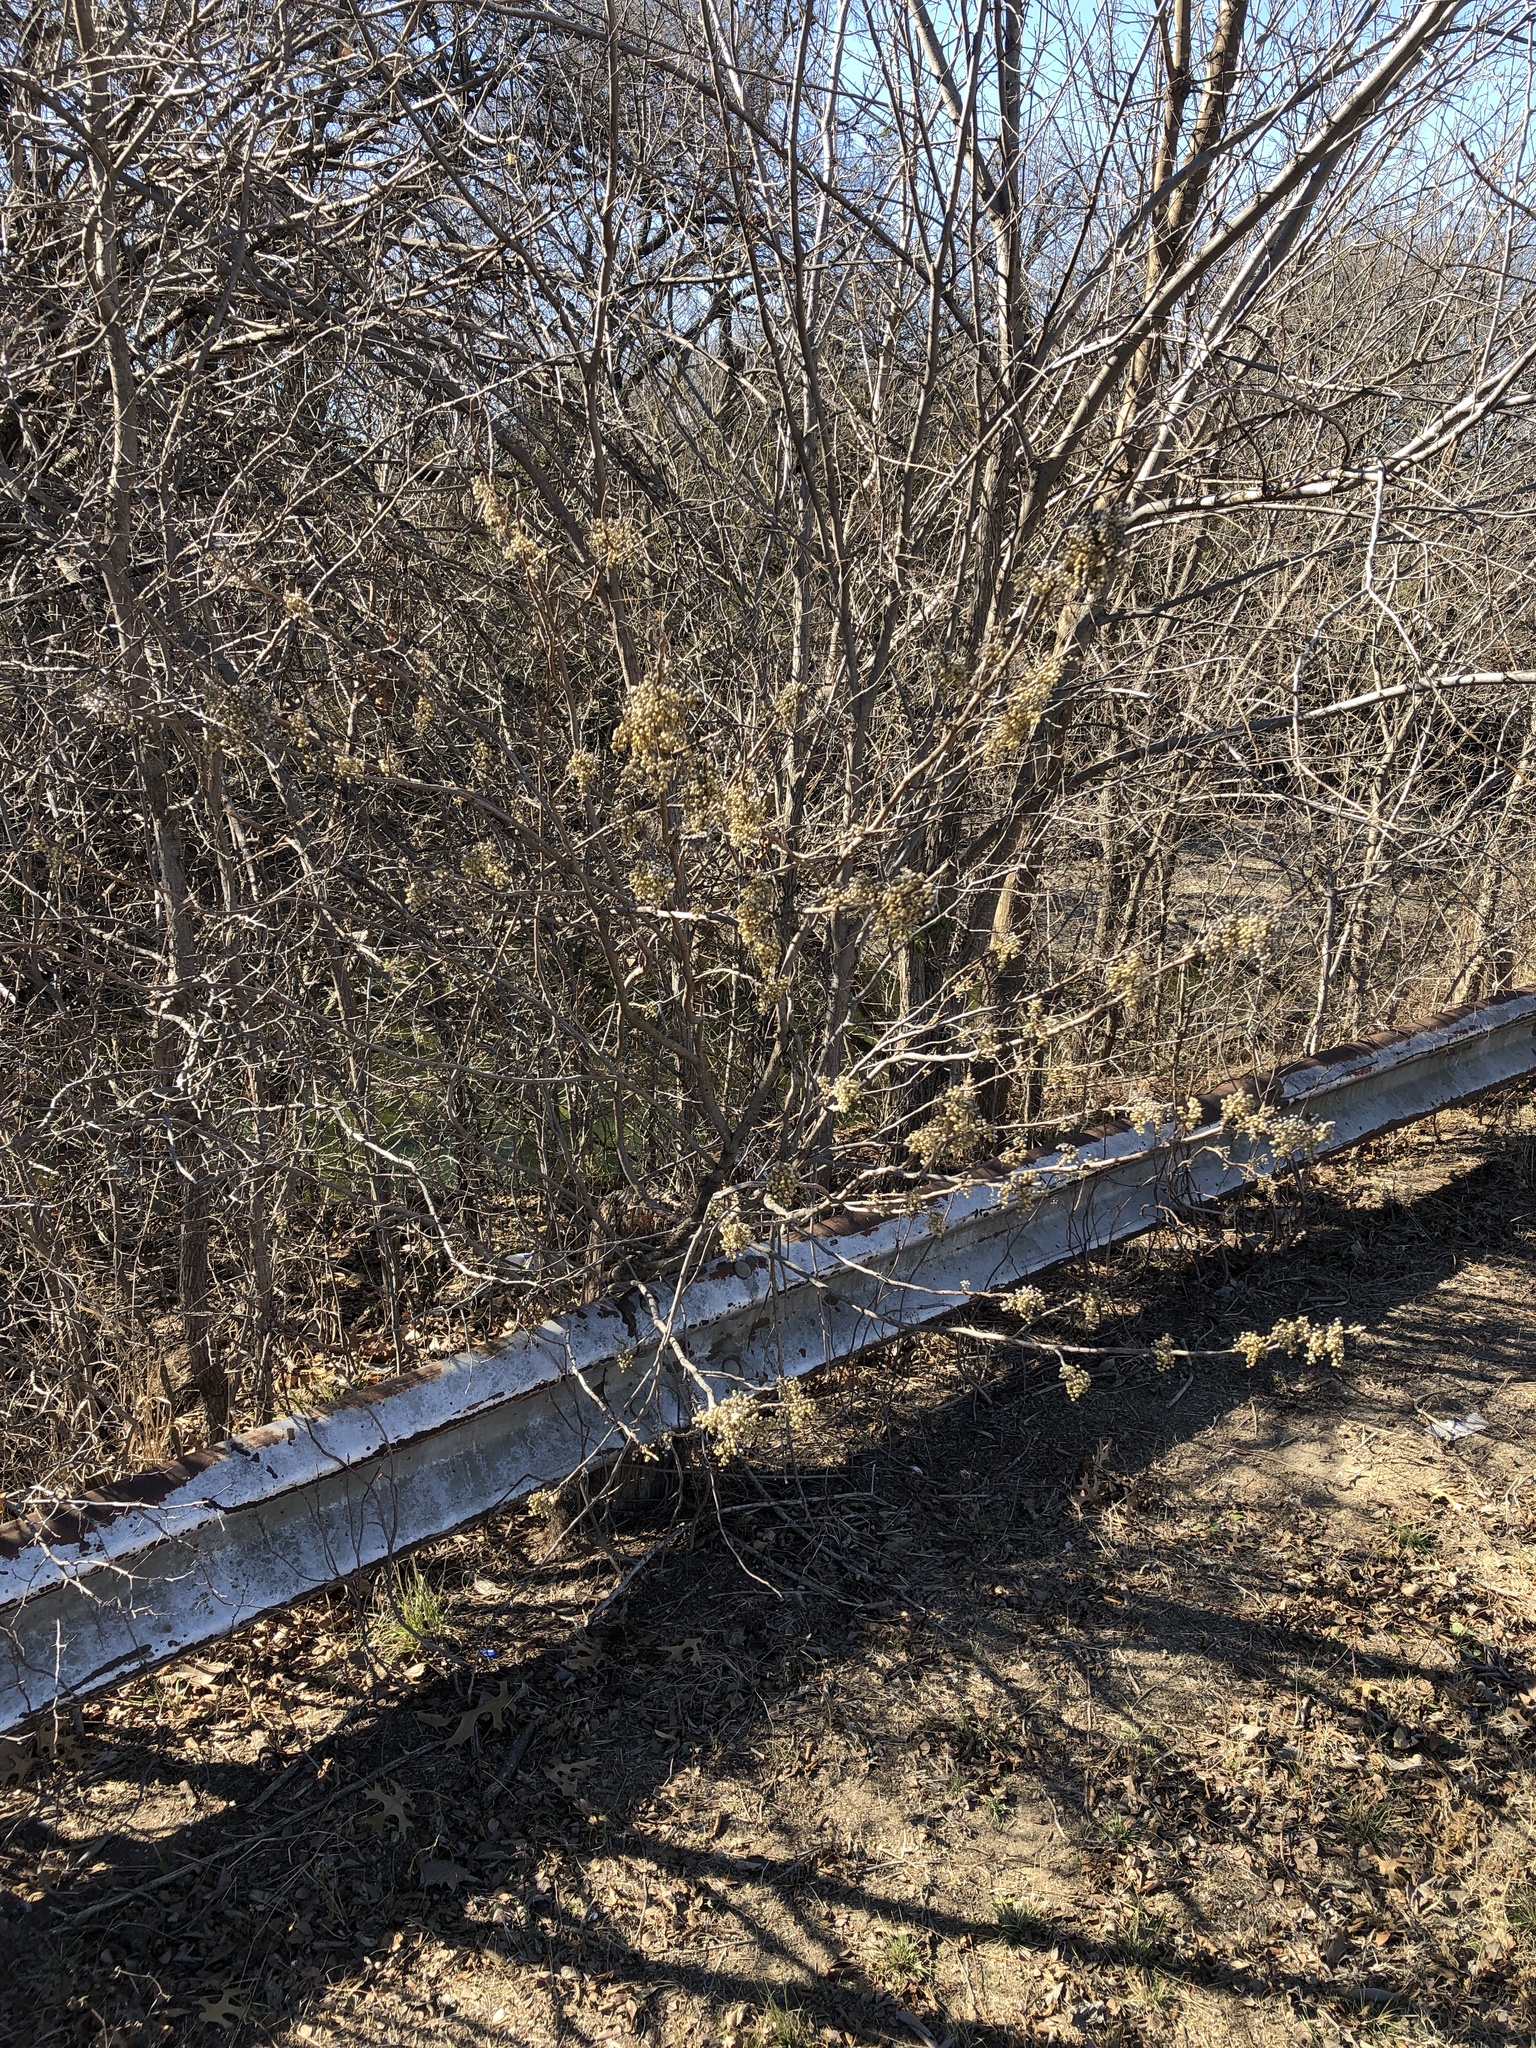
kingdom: Plantae
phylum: Tracheophyta
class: Magnoliopsida
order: Sapindales
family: Anacardiaceae
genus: Toxicodendron
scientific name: Toxicodendron radicans
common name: Poison ivy
